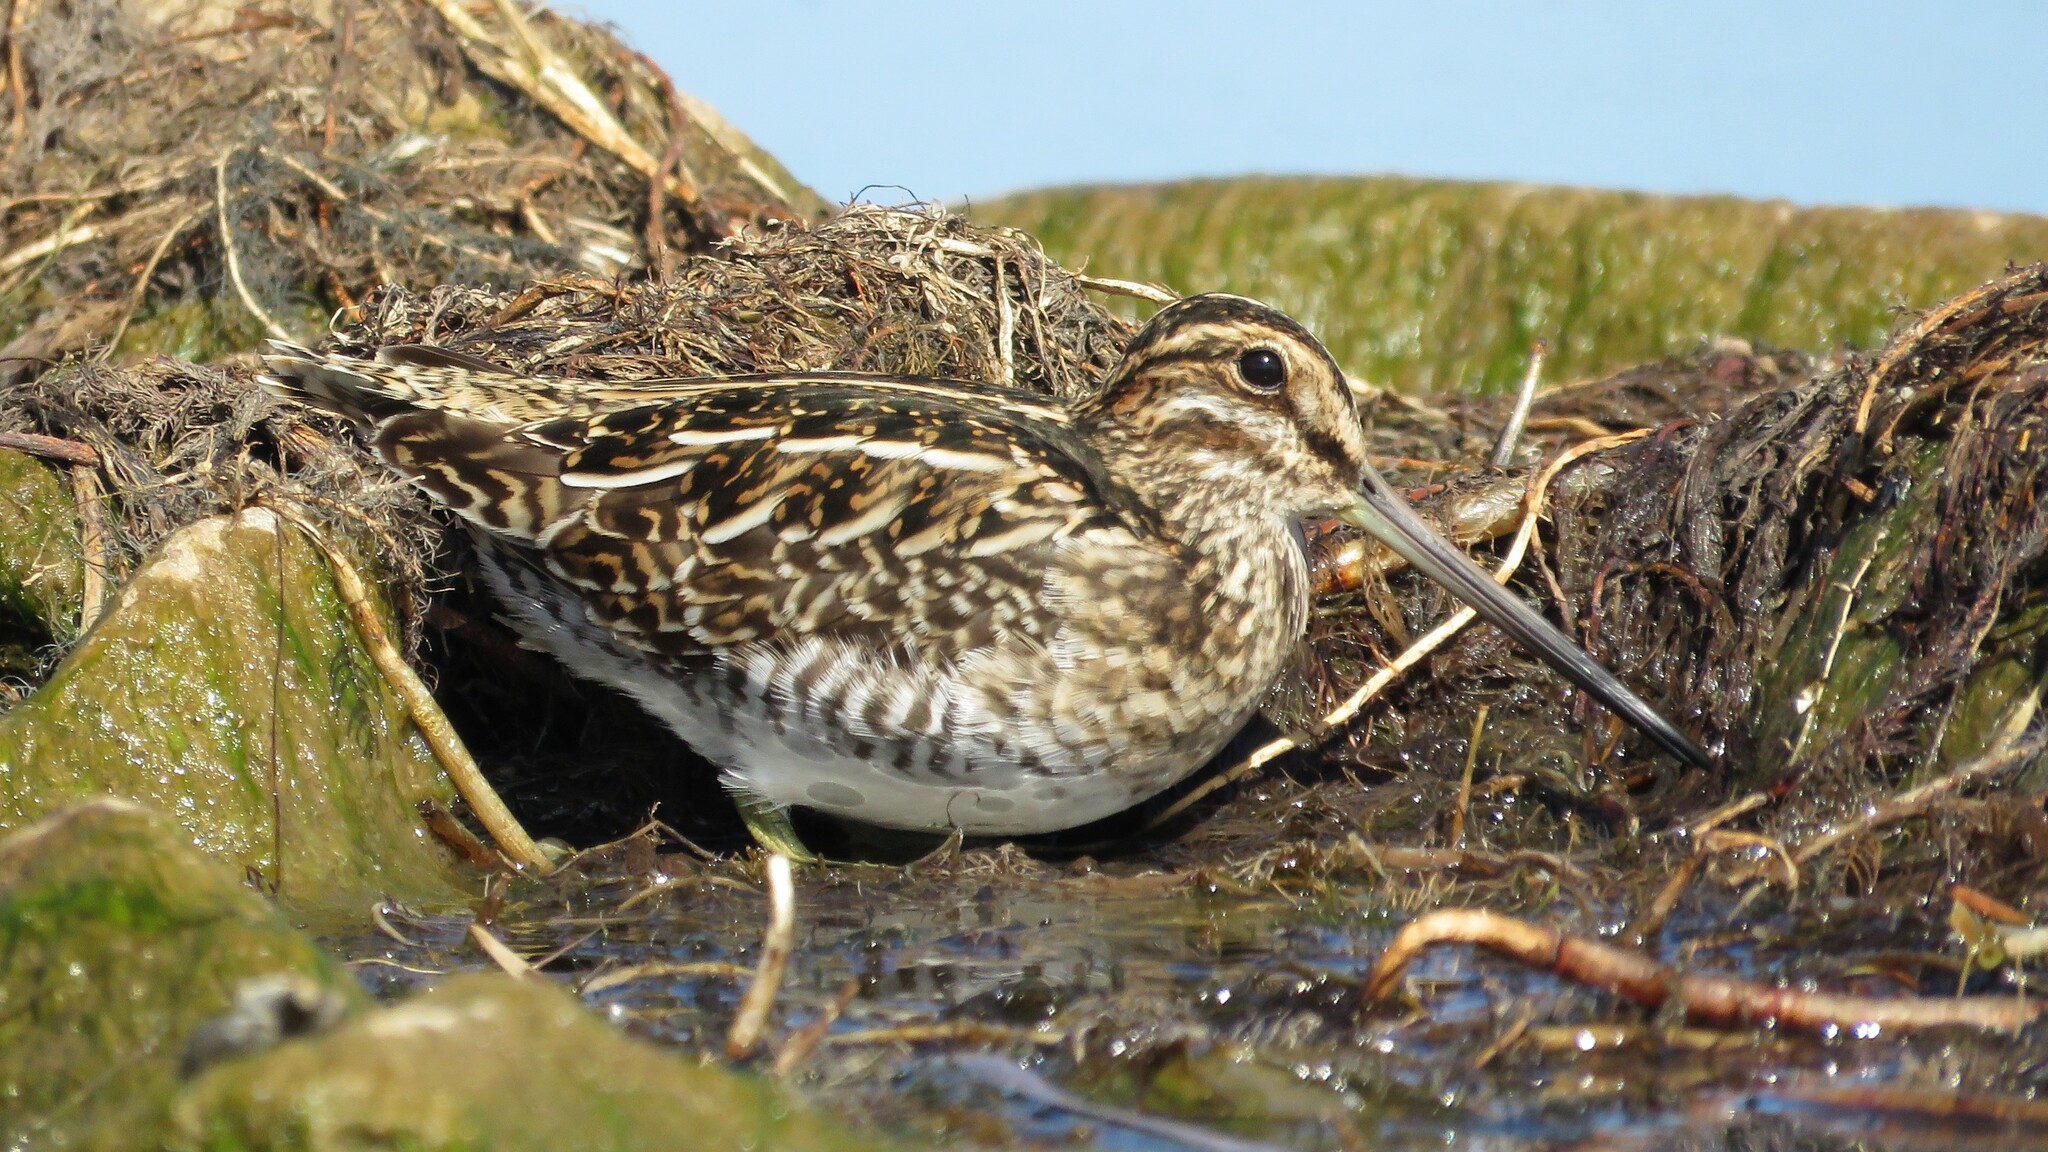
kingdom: Animalia
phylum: Chordata
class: Aves
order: Charadriiformes
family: Scolopacidae
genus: Gallinago
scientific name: Gallinago delicata
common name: Wilson's snipe
